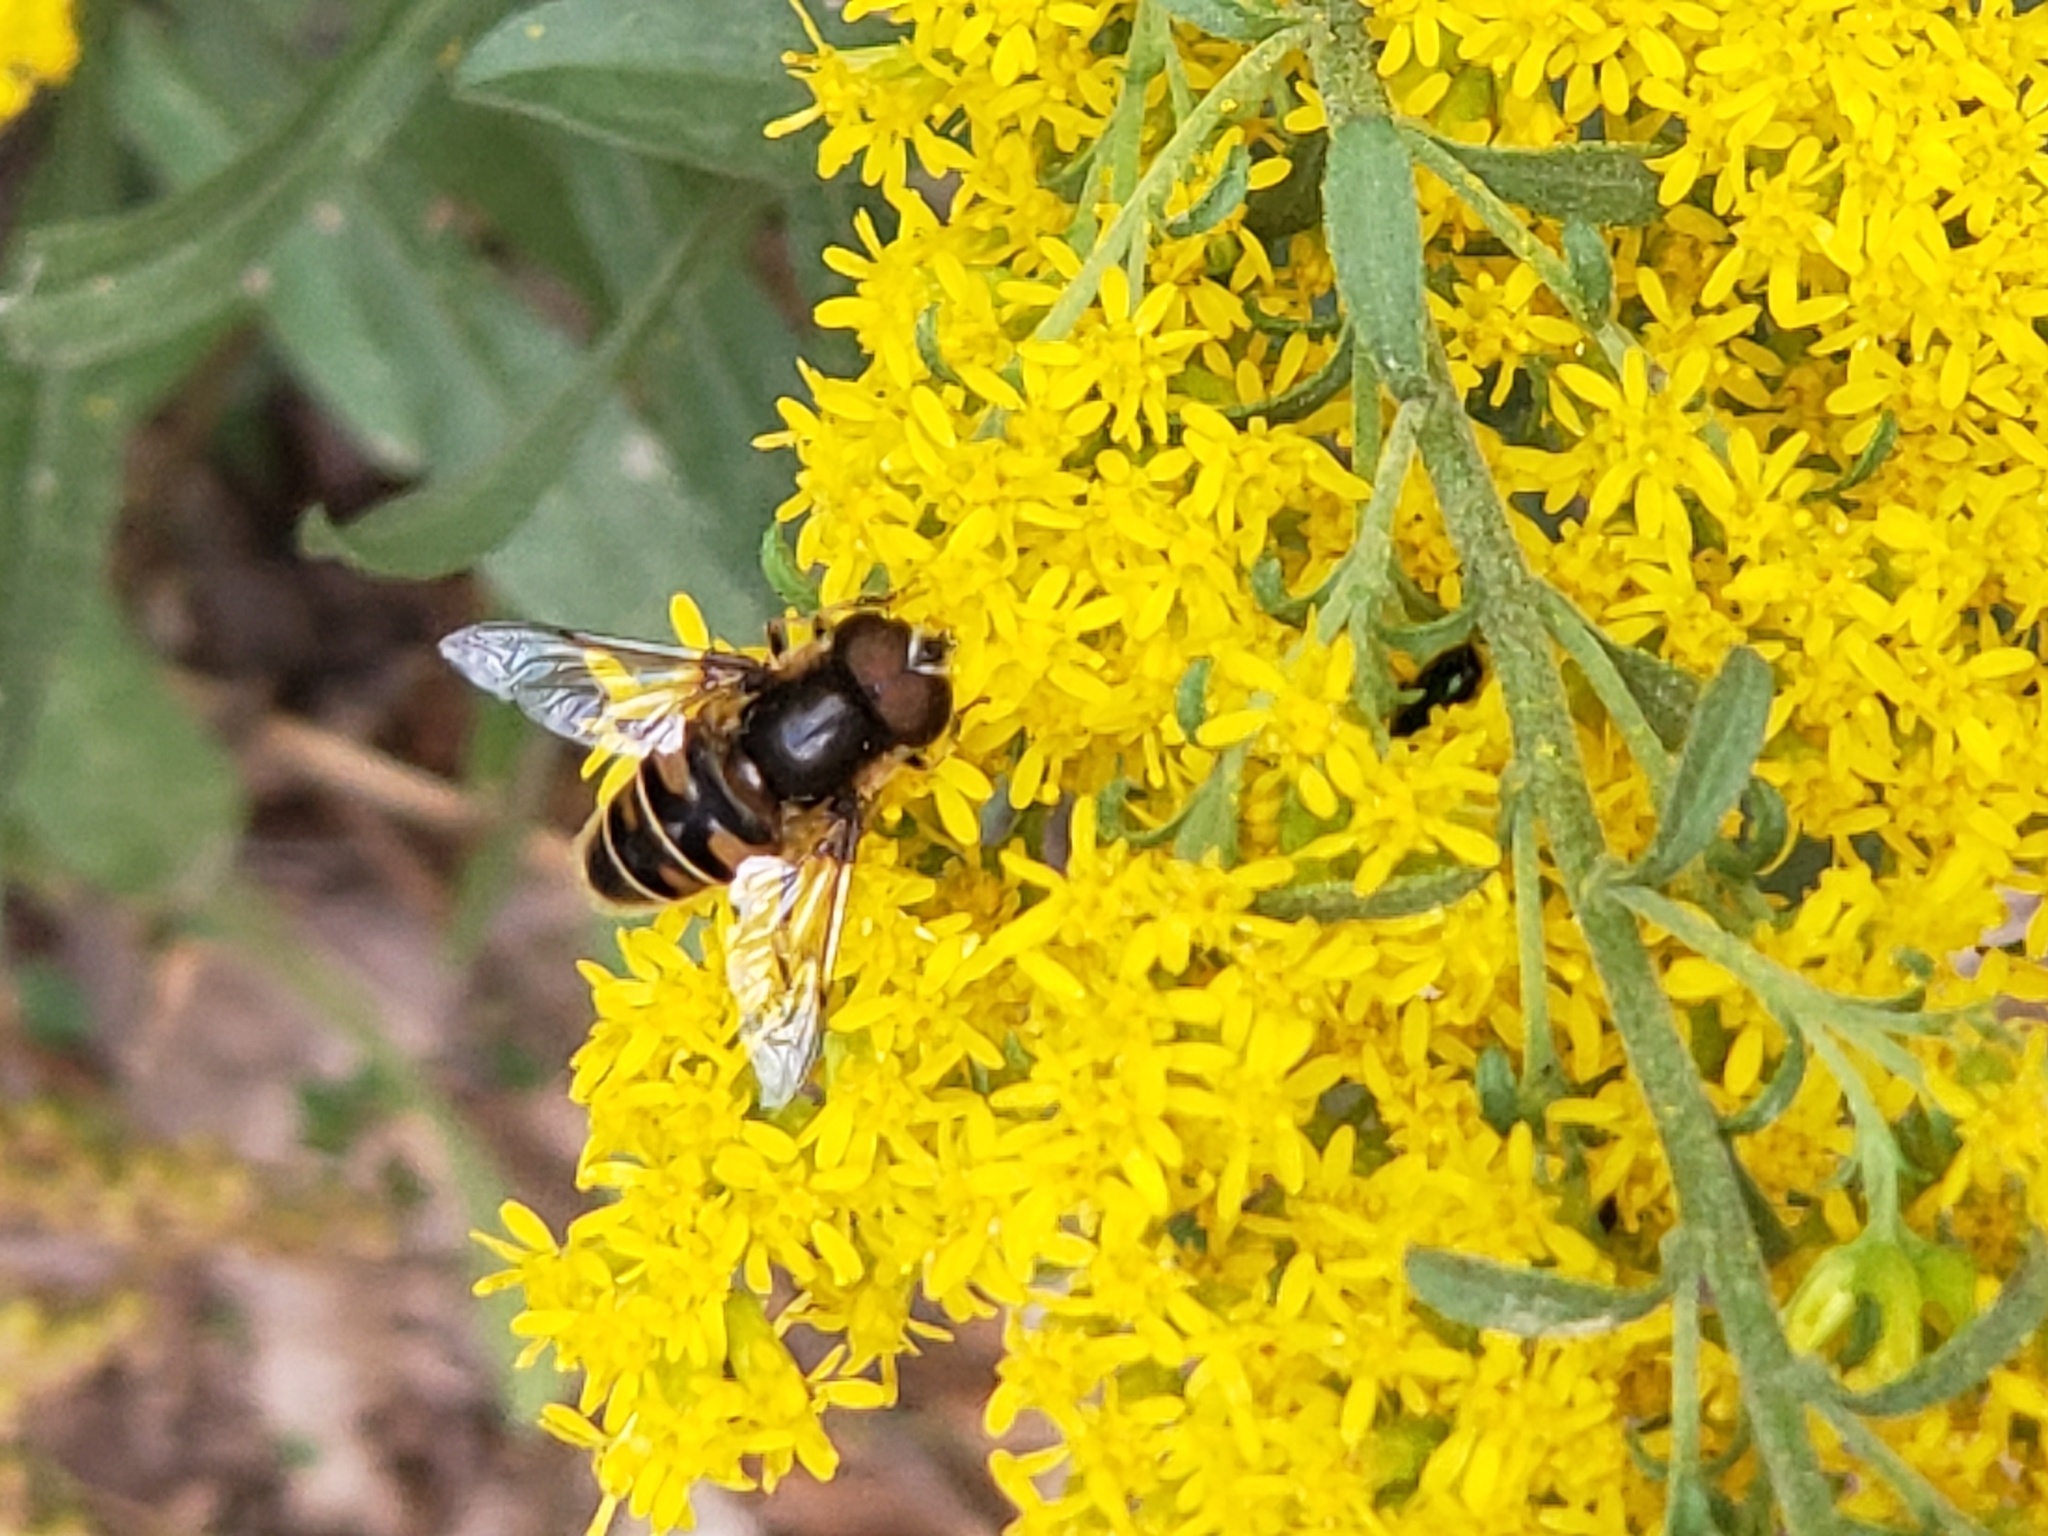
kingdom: Animalia
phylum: Arthropoda
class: Insecta
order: Diptera
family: Syrphidae
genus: Eristalis
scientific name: Eristalis dimidiata
